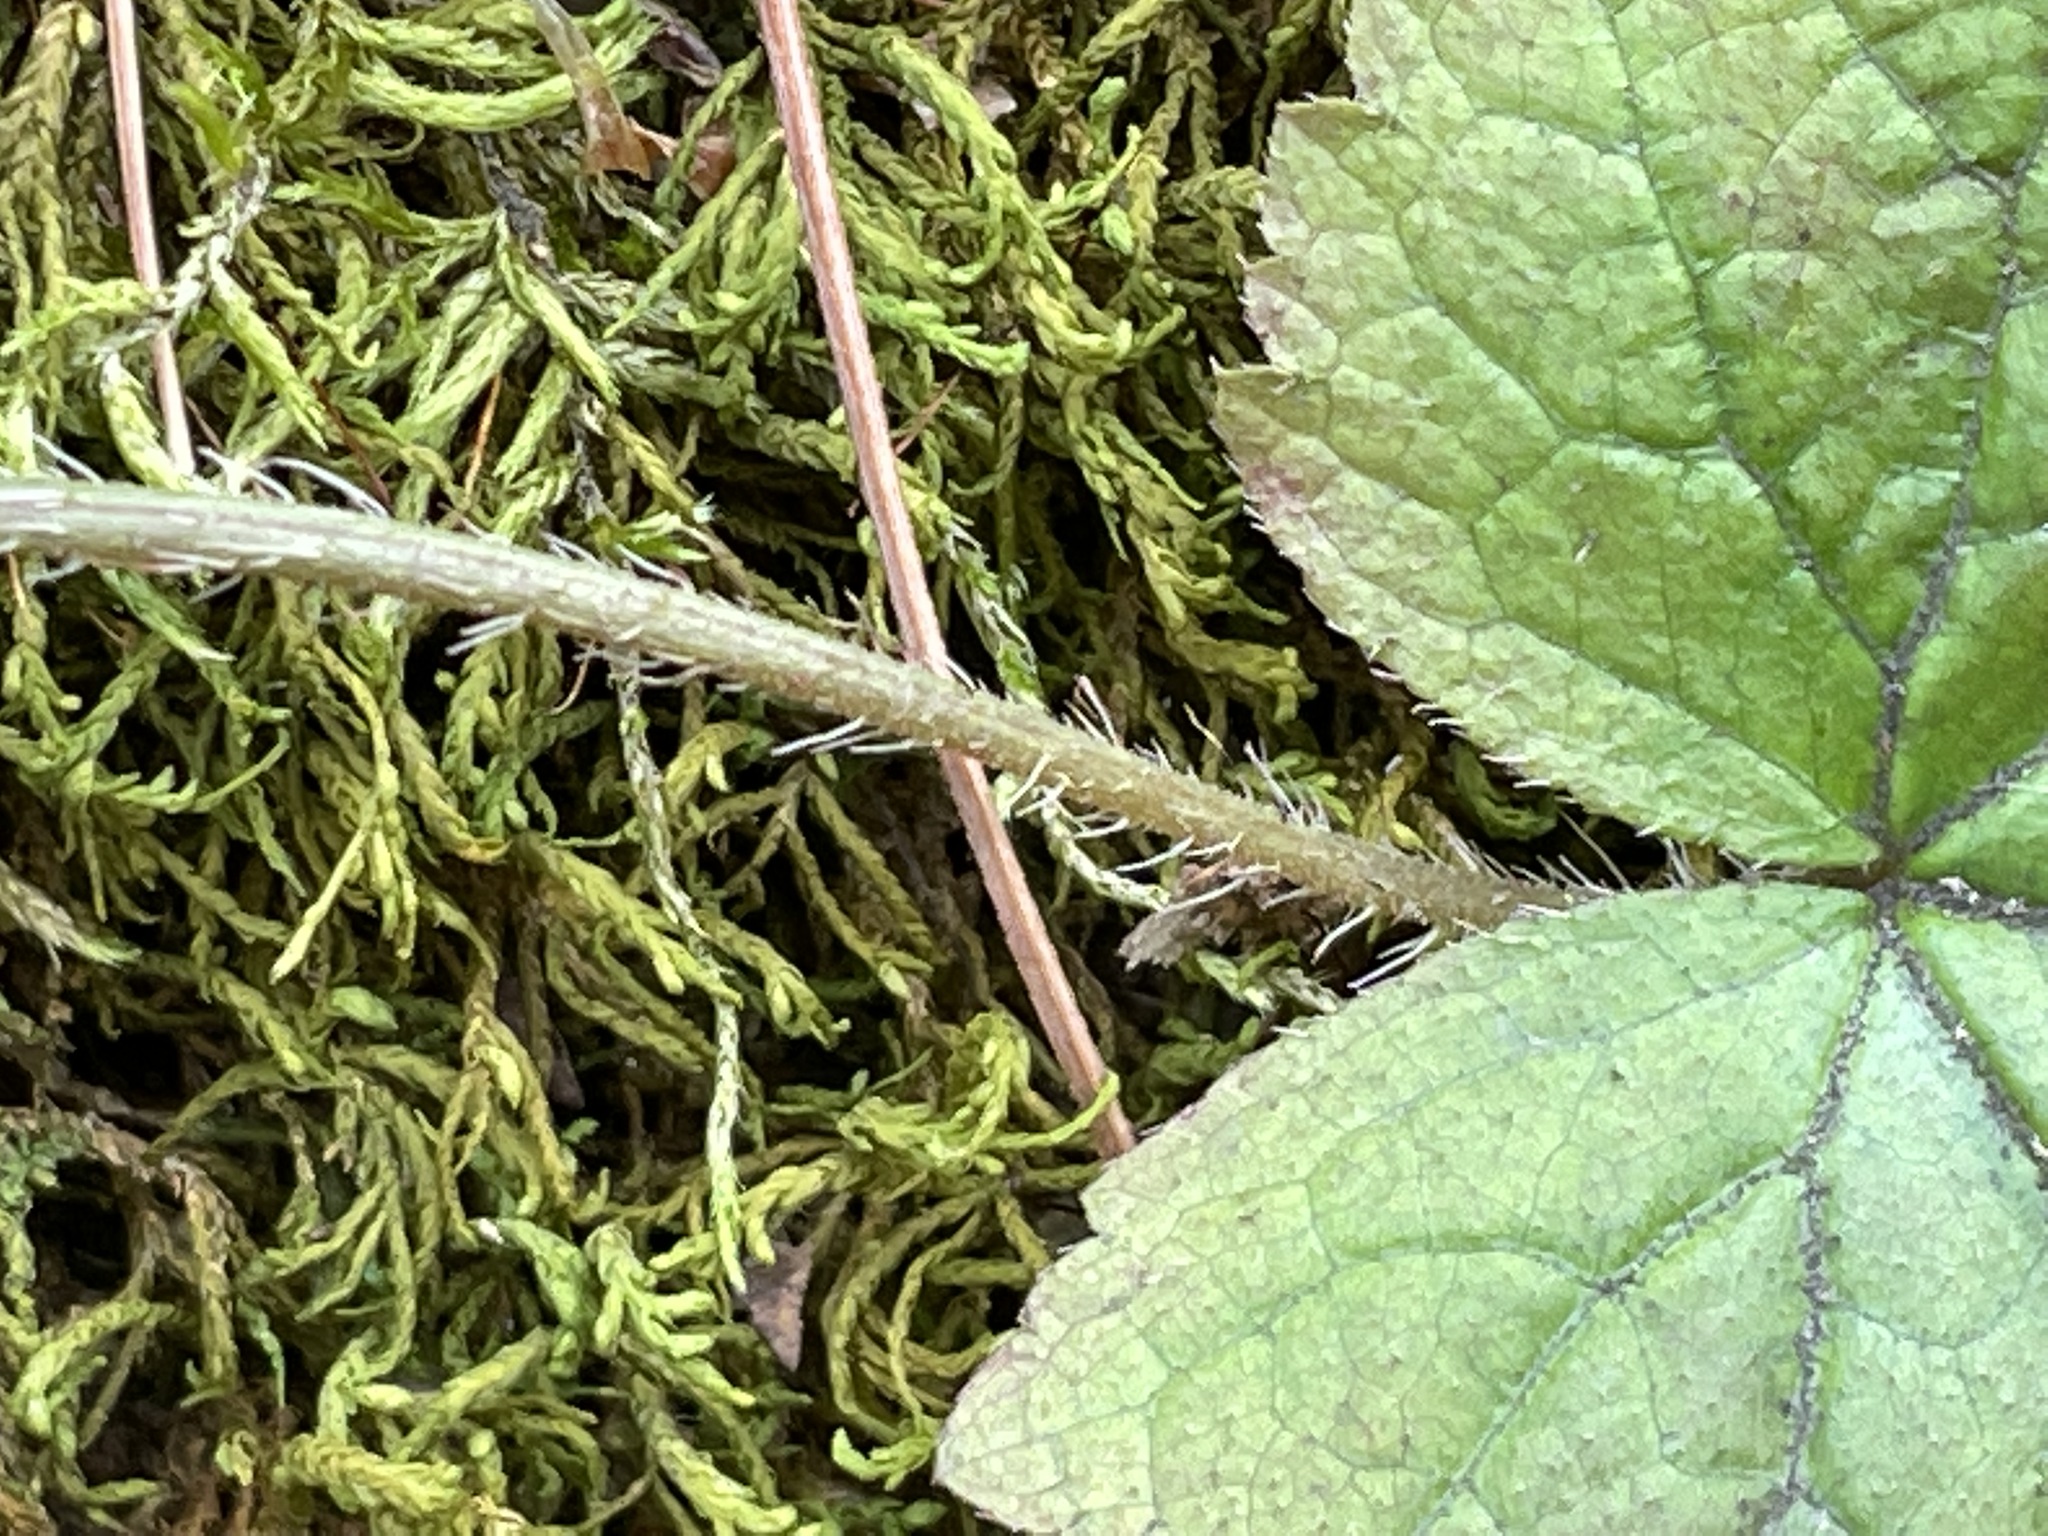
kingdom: Plantae
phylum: Tracheophyta
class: Magnoliopsida
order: Saxifragales
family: Saxifragaceae
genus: Mitella
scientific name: Mitella diphylla
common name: Coolwort
